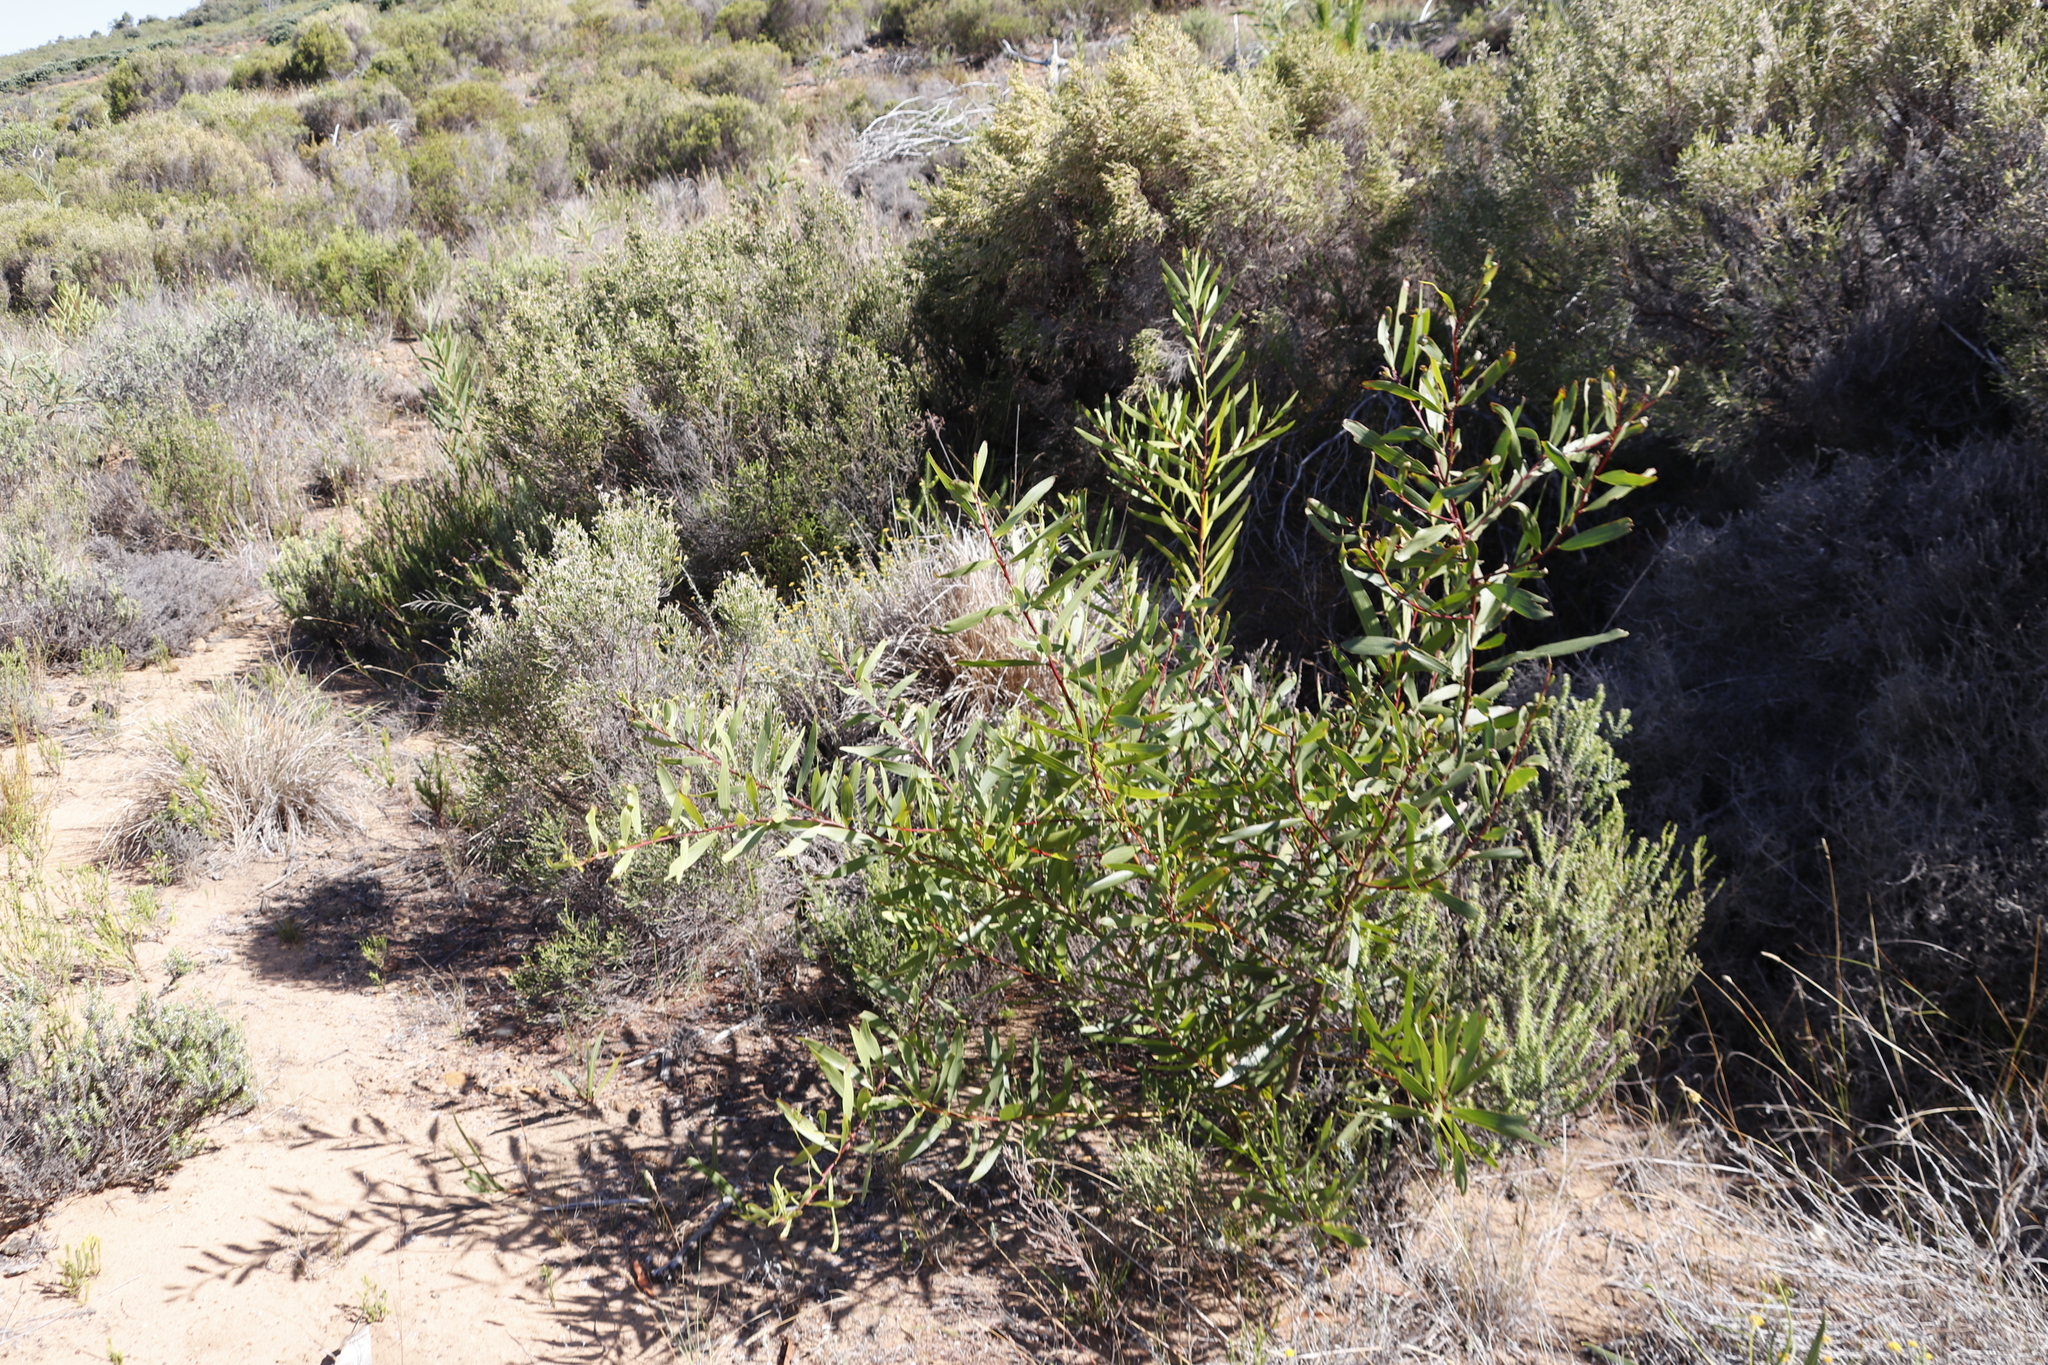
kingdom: Plantae
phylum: Tracheophyta
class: Magnoliopsida
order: Fabales
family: Fabaceae
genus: Acacia
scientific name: Acacia longifolia
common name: Sydney golden wattle
